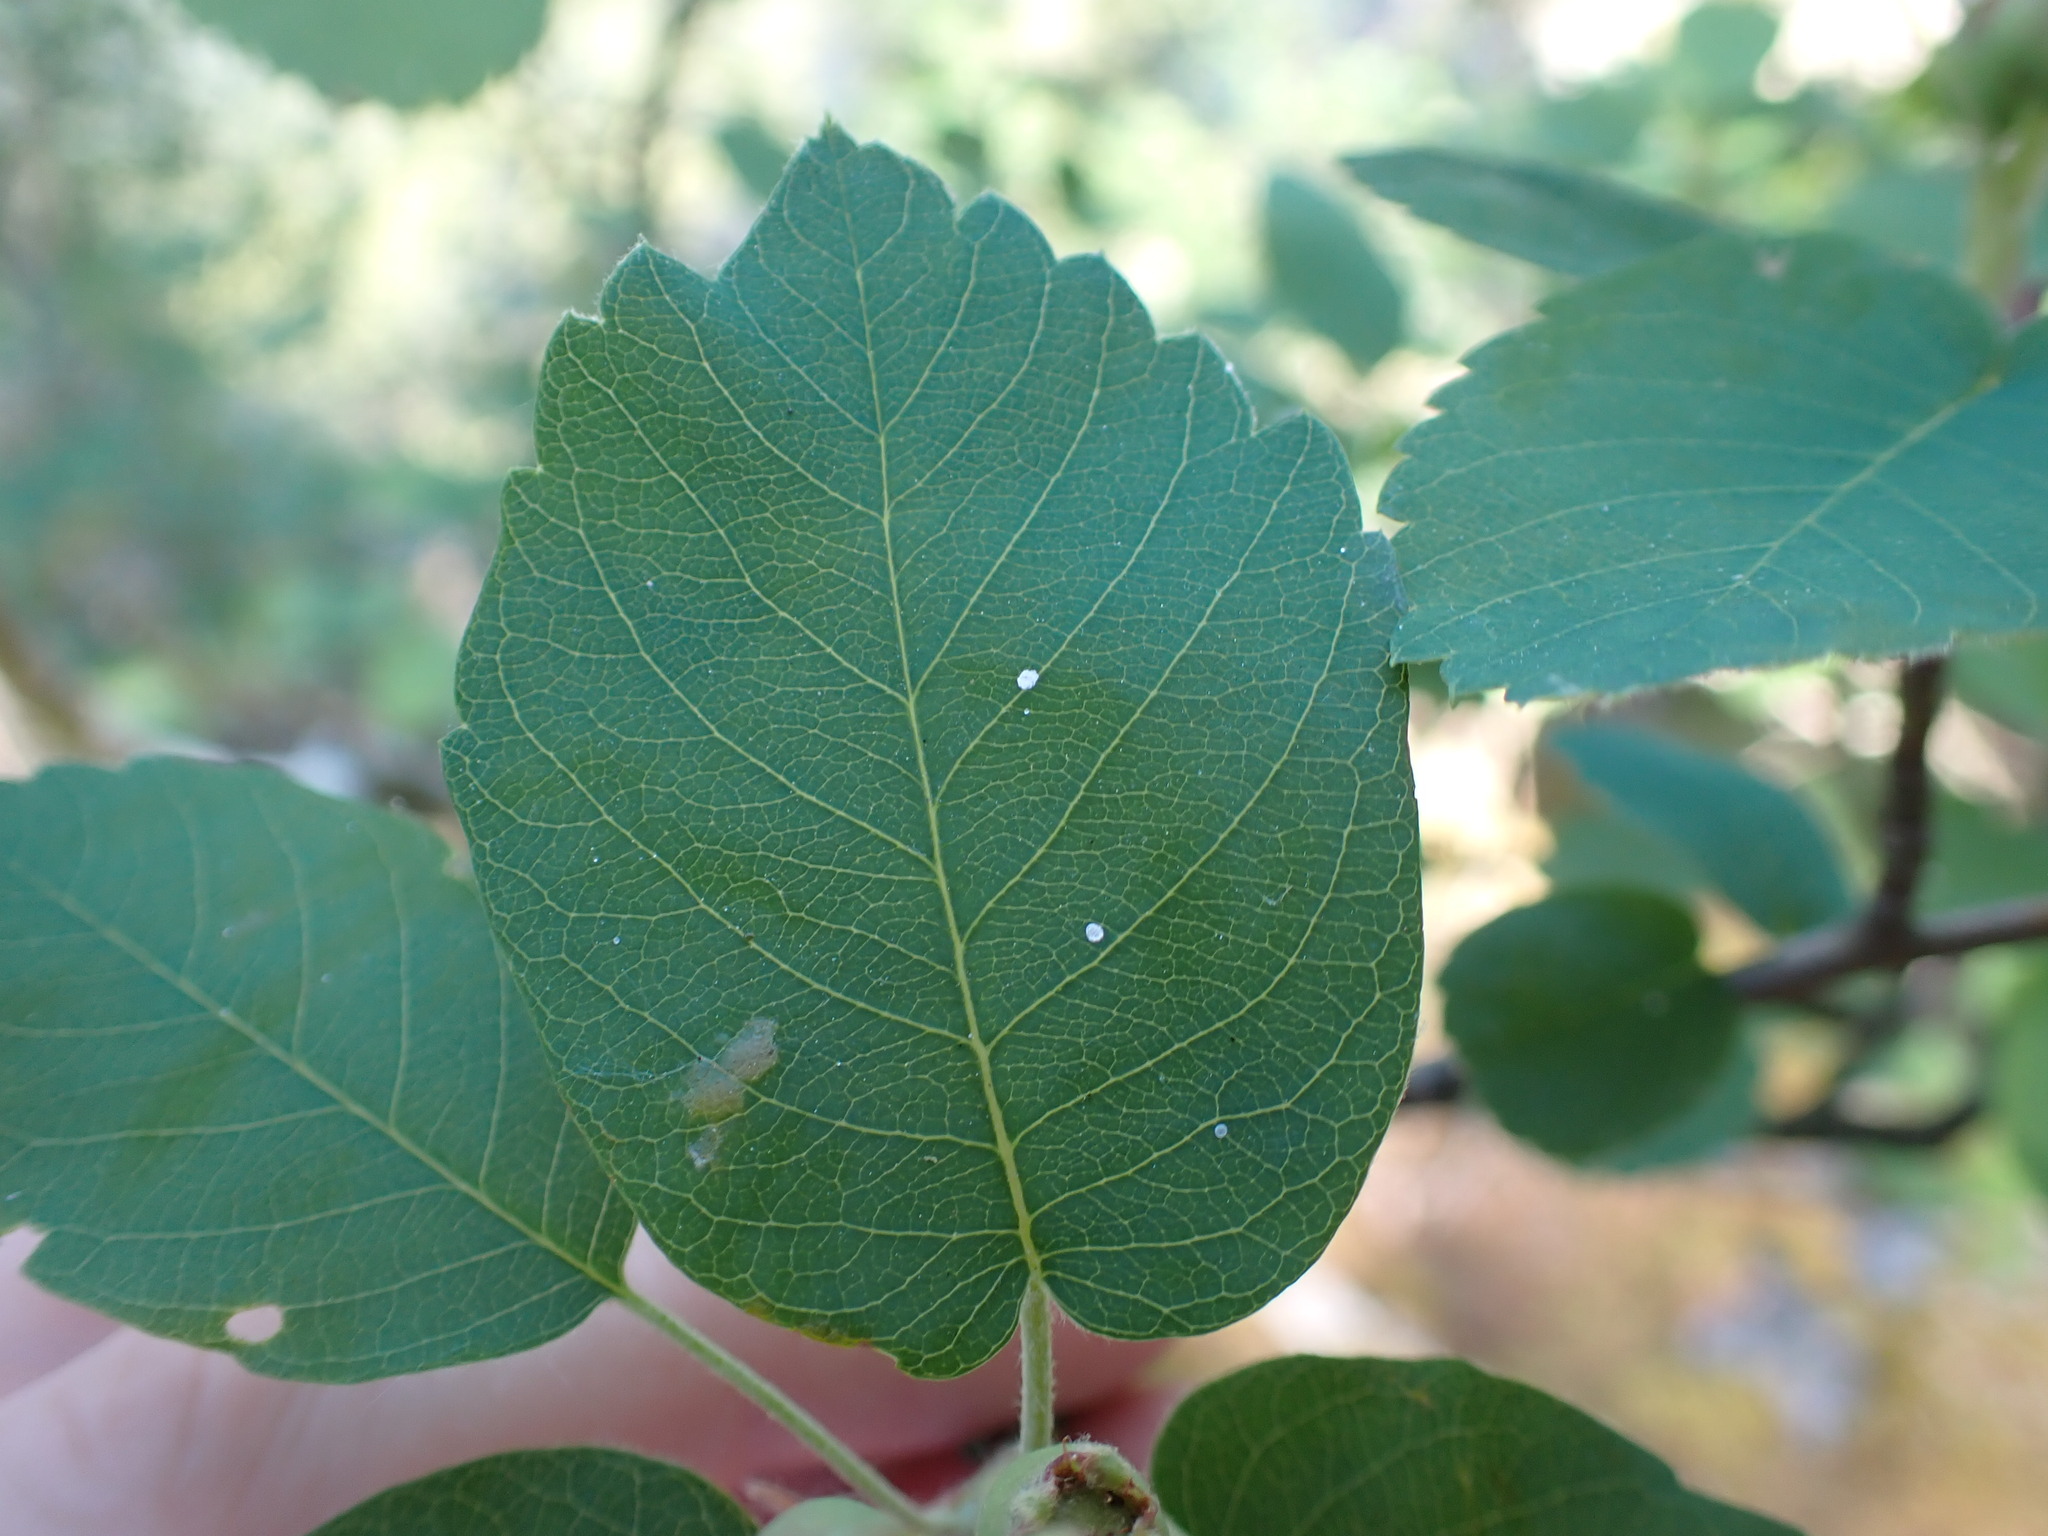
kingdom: Plantae
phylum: Tracheophyta
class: Magnoliopsida
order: Rosales
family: Rosaceae
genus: Amelanchier
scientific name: Amelanchier alnifolia
